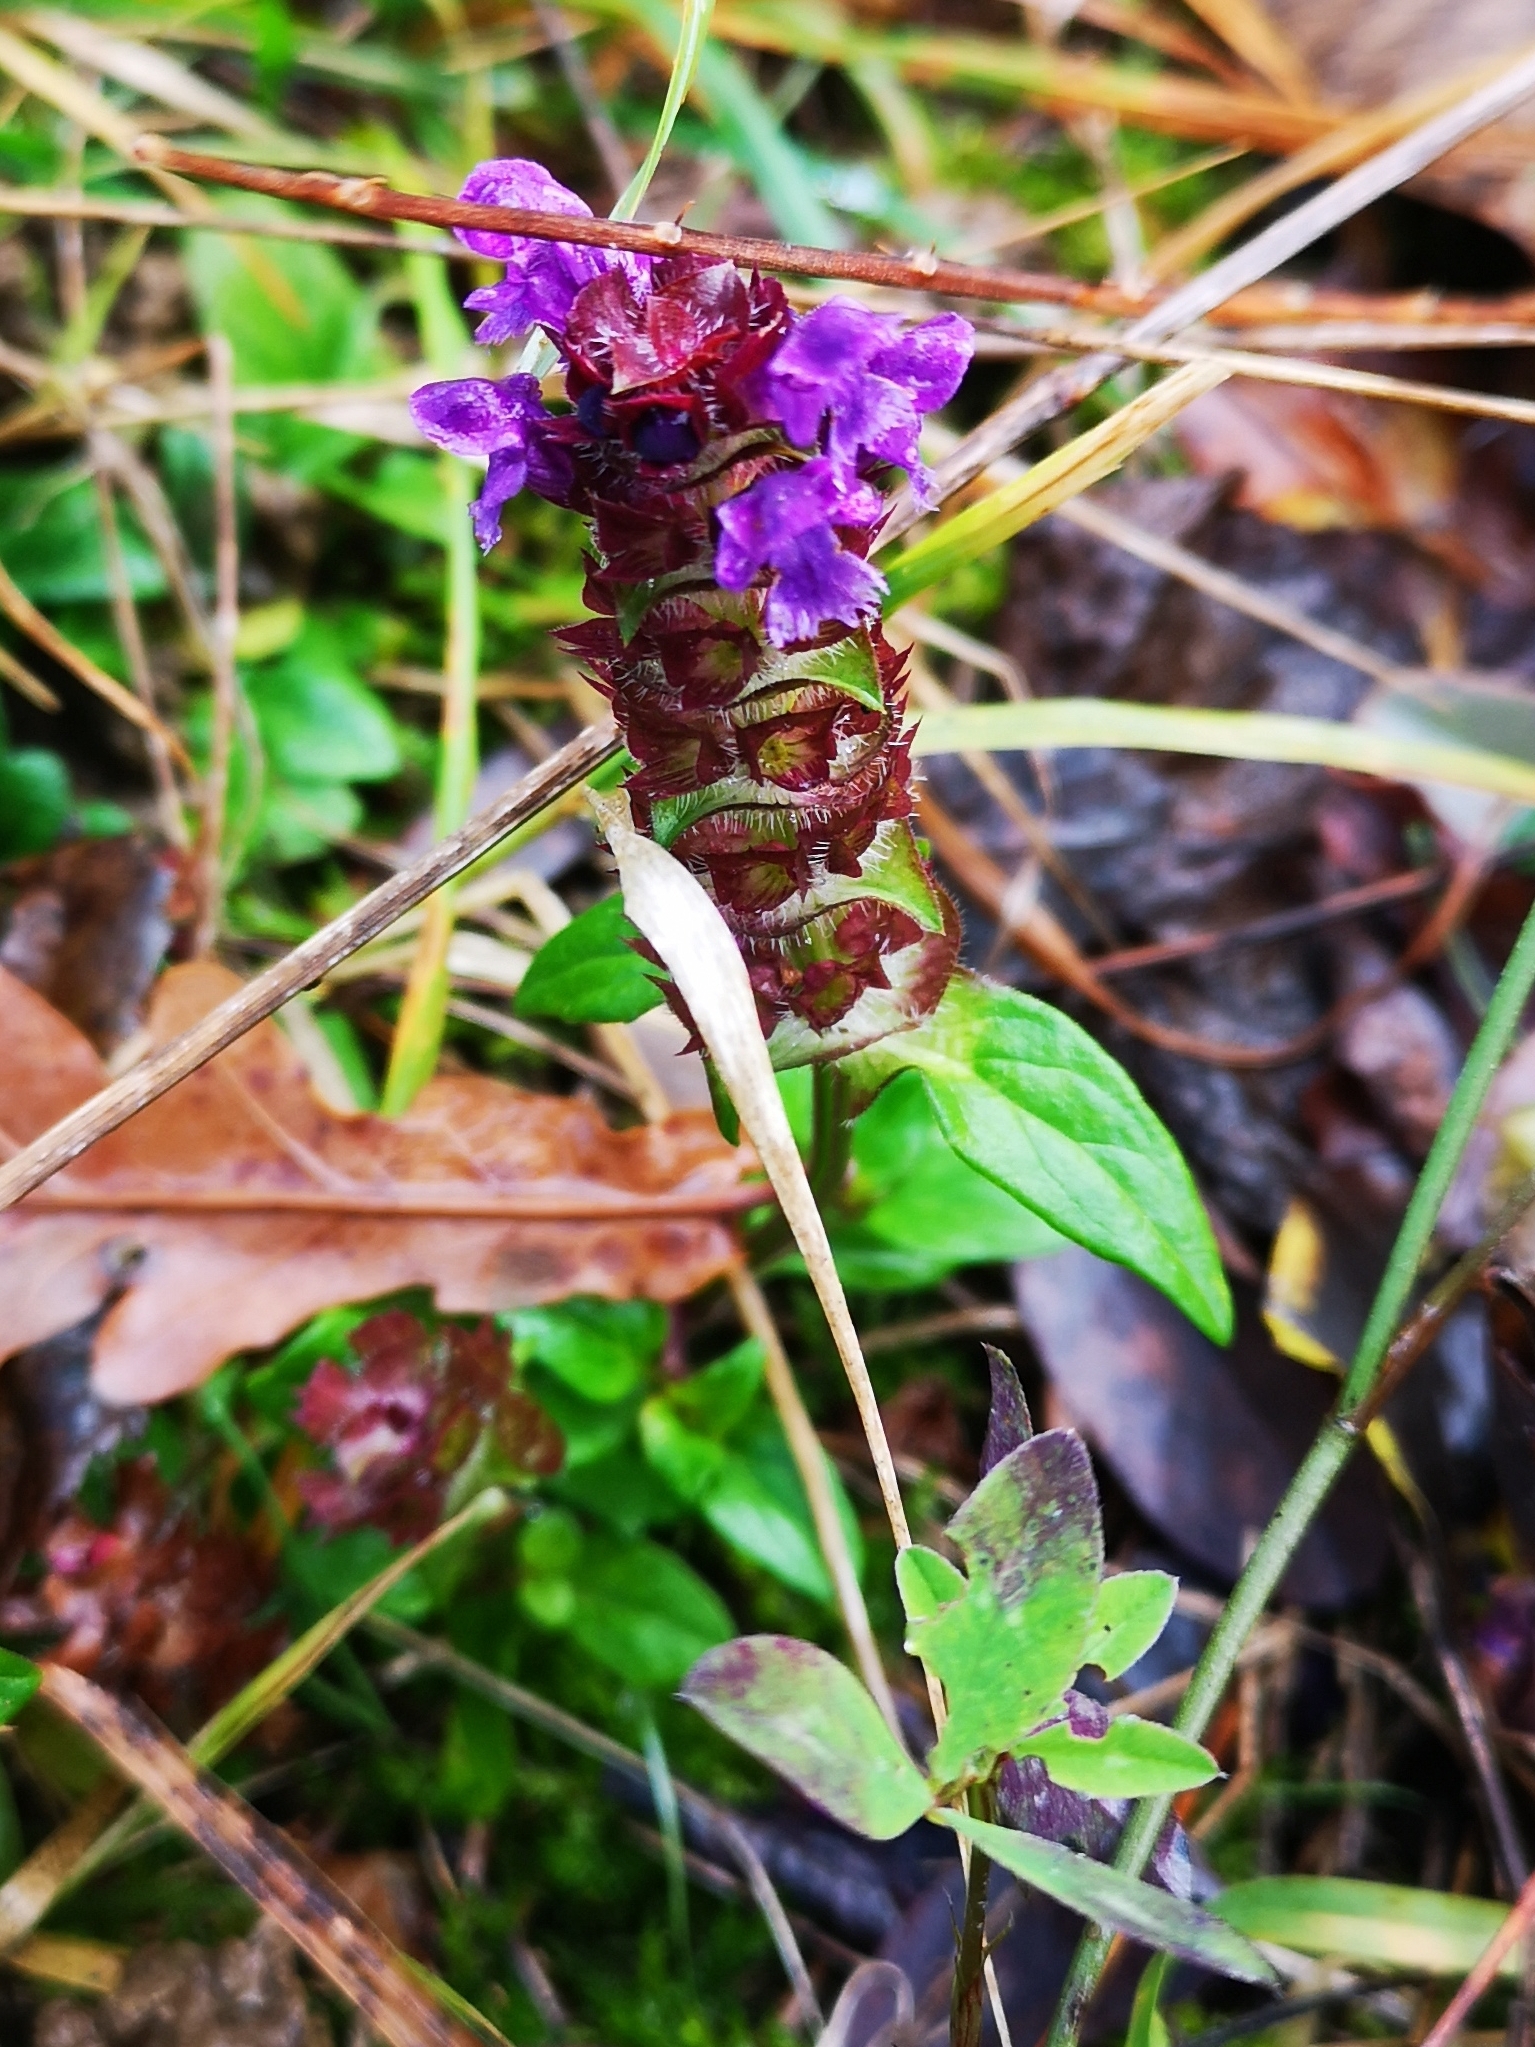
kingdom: Plantae
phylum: Tracheophyta
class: Magnoliopsida
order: Lamiales
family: Lamiaceae
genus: Prunella
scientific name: Prunella vulgaris
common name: Heal-all
